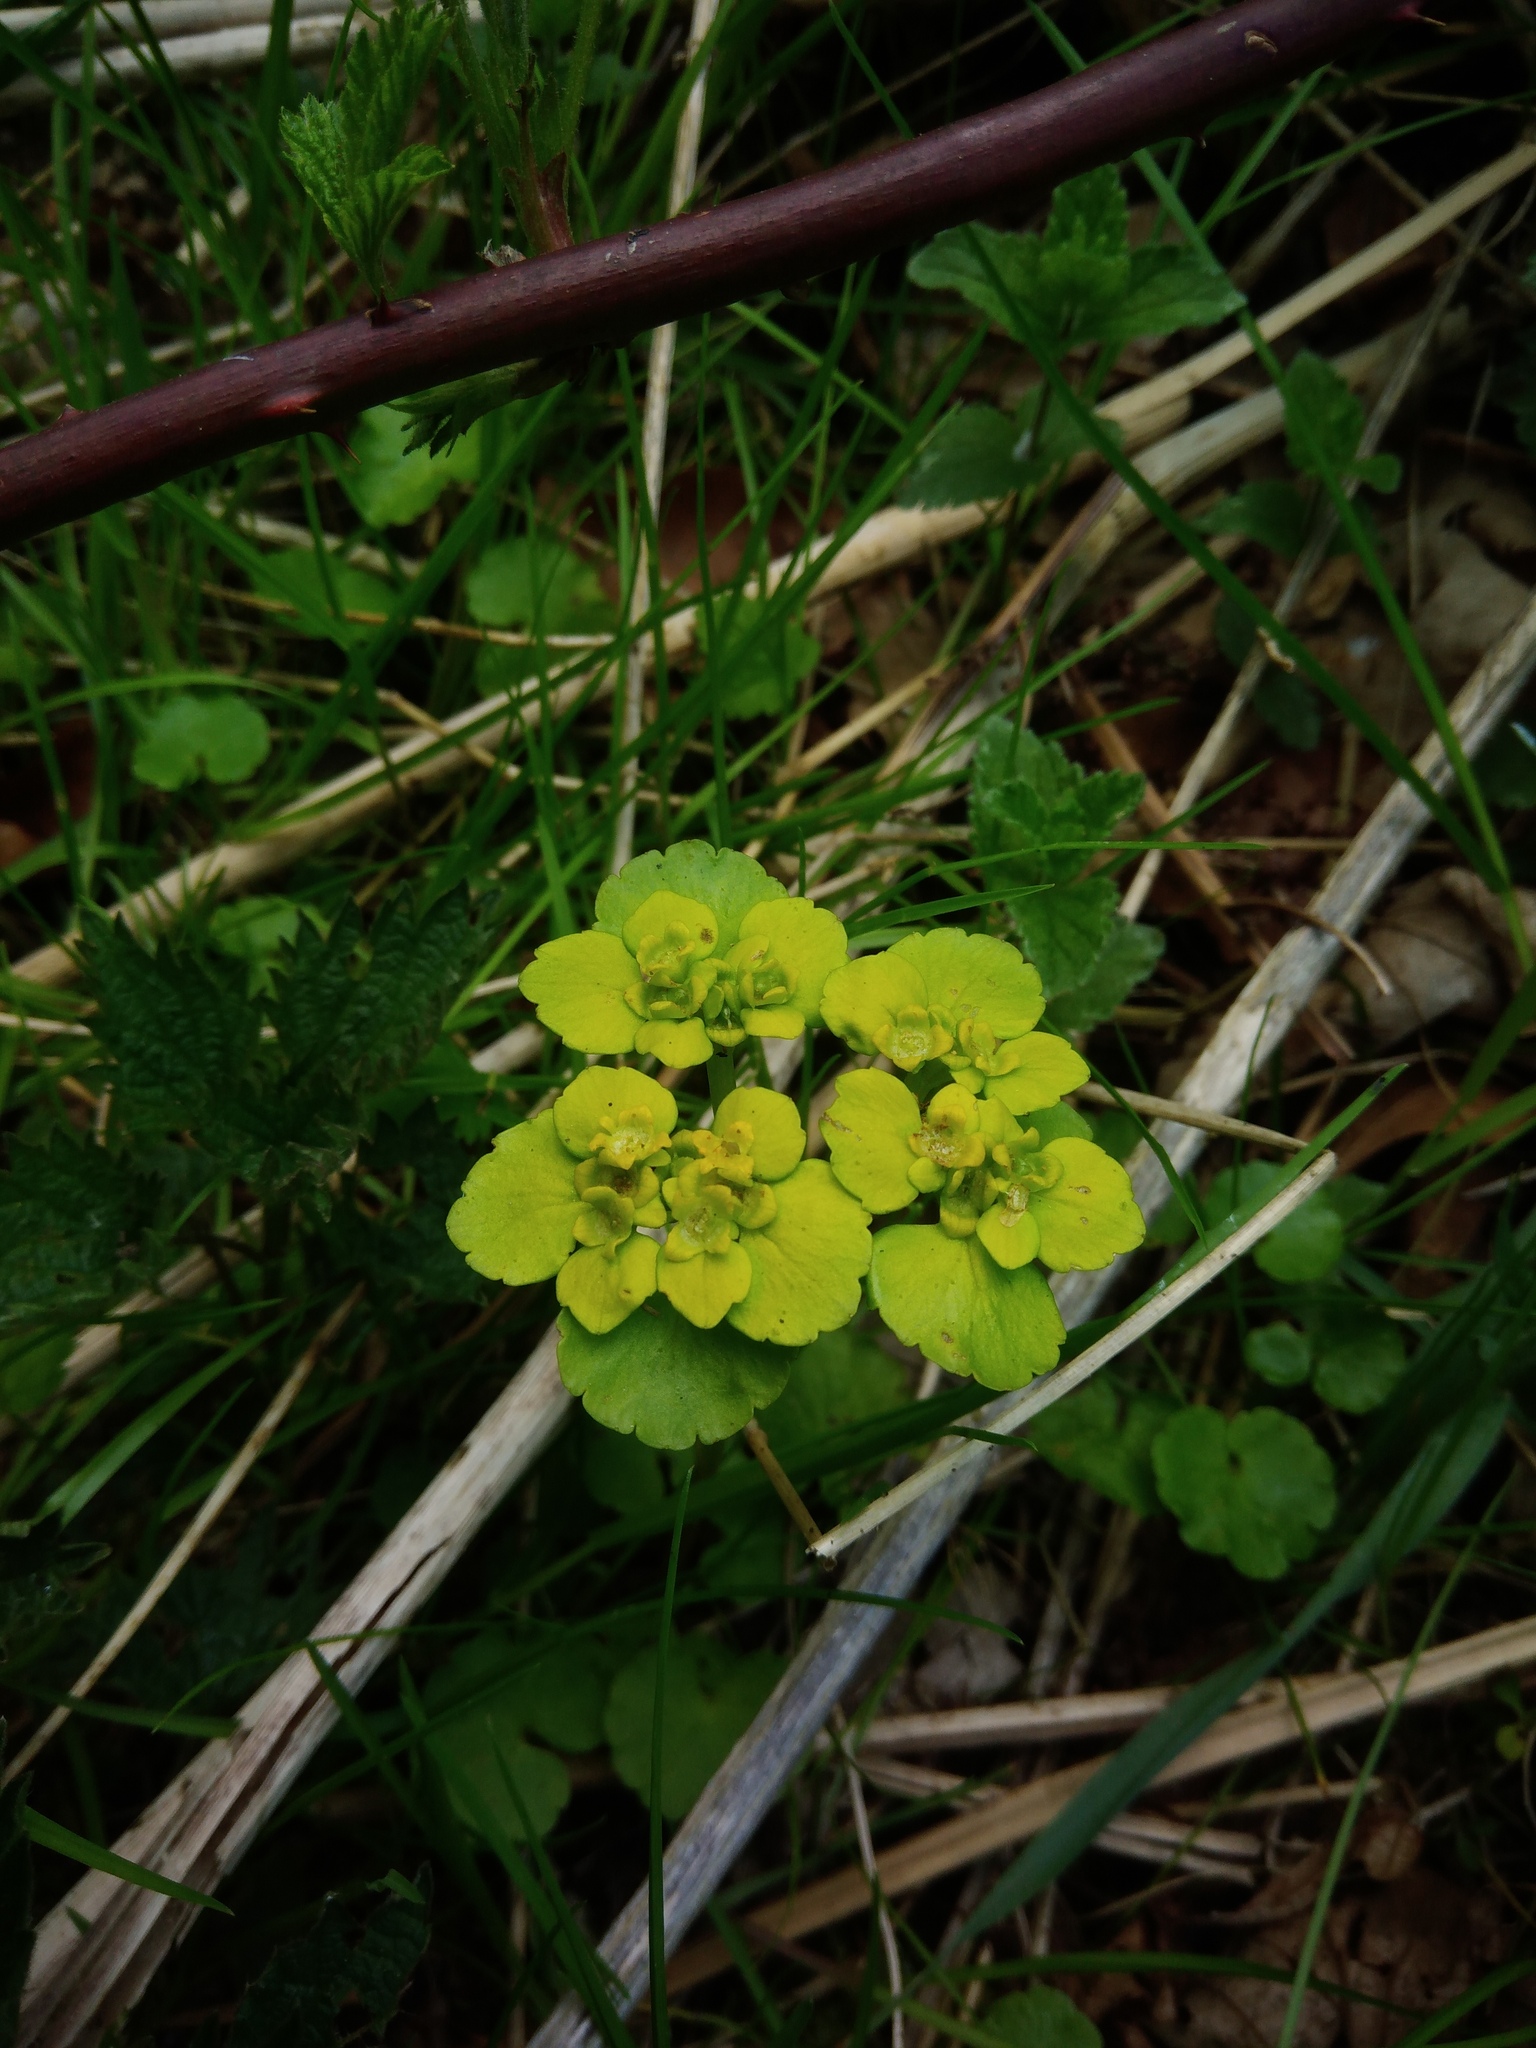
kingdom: Plantae
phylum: Tracheophyta
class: Magnoliopsida
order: Saxifragales
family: Saxifragaceae
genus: Chrysosplenium
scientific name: Chrysosplenium alternifolium
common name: Alternate-leaved golden-saxifrage
